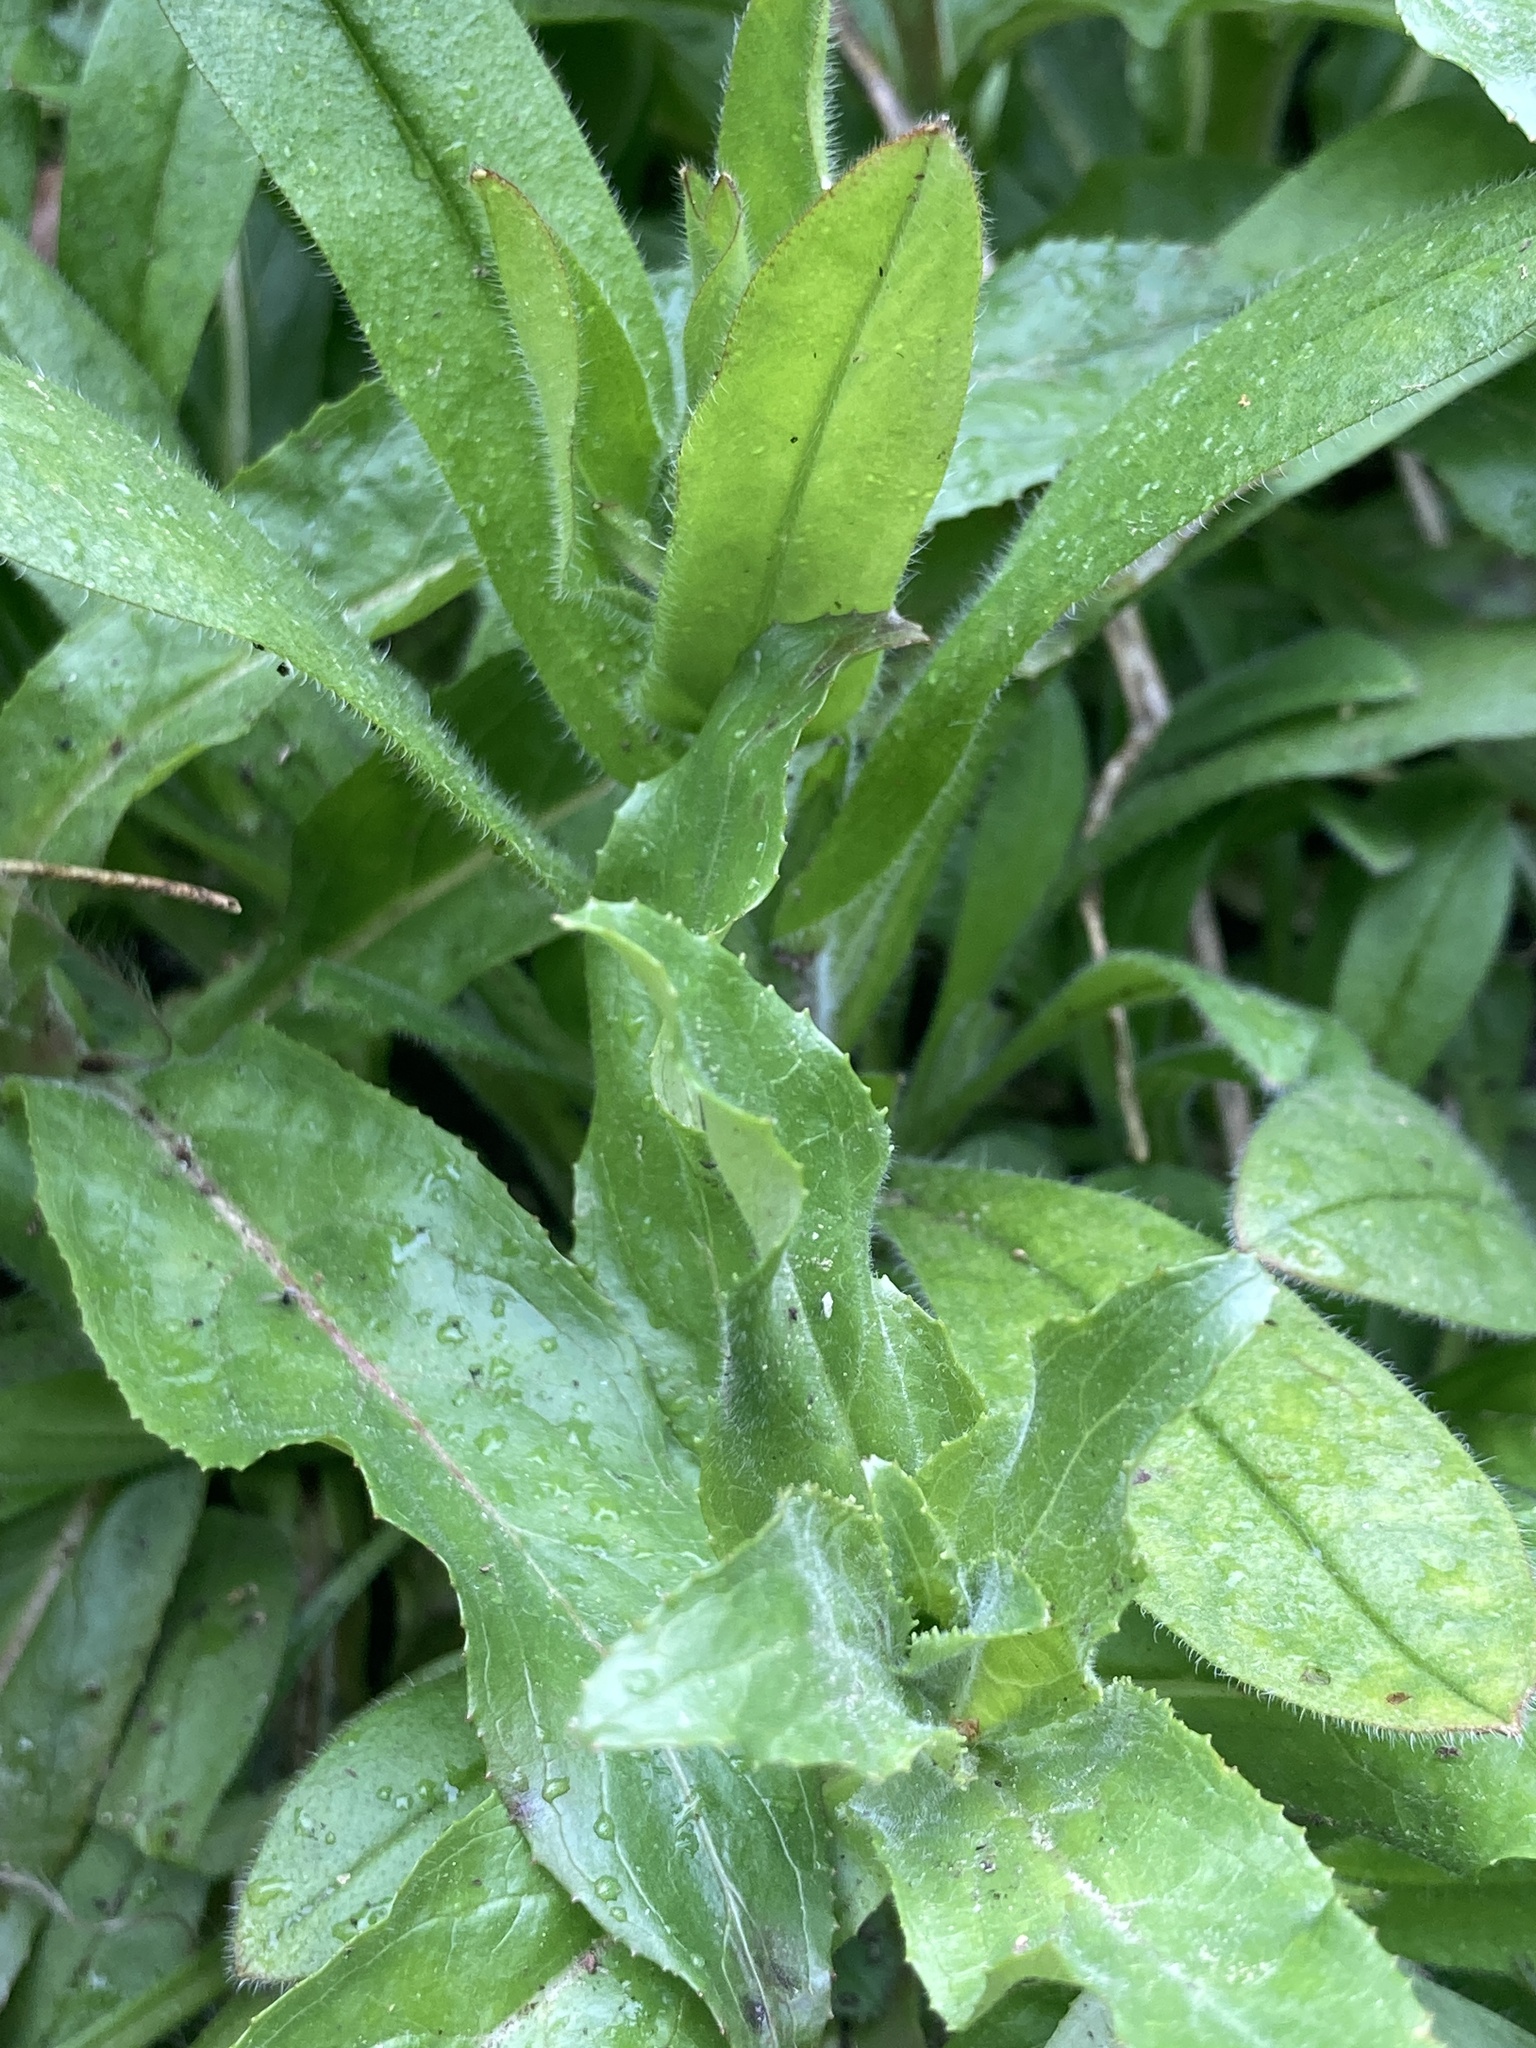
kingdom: Plantae
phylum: Tracheophyta
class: Magnoliopsida
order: Caryophyllales
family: Caryophyllaceae
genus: Silene
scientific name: Silene dioica
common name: Red campion
